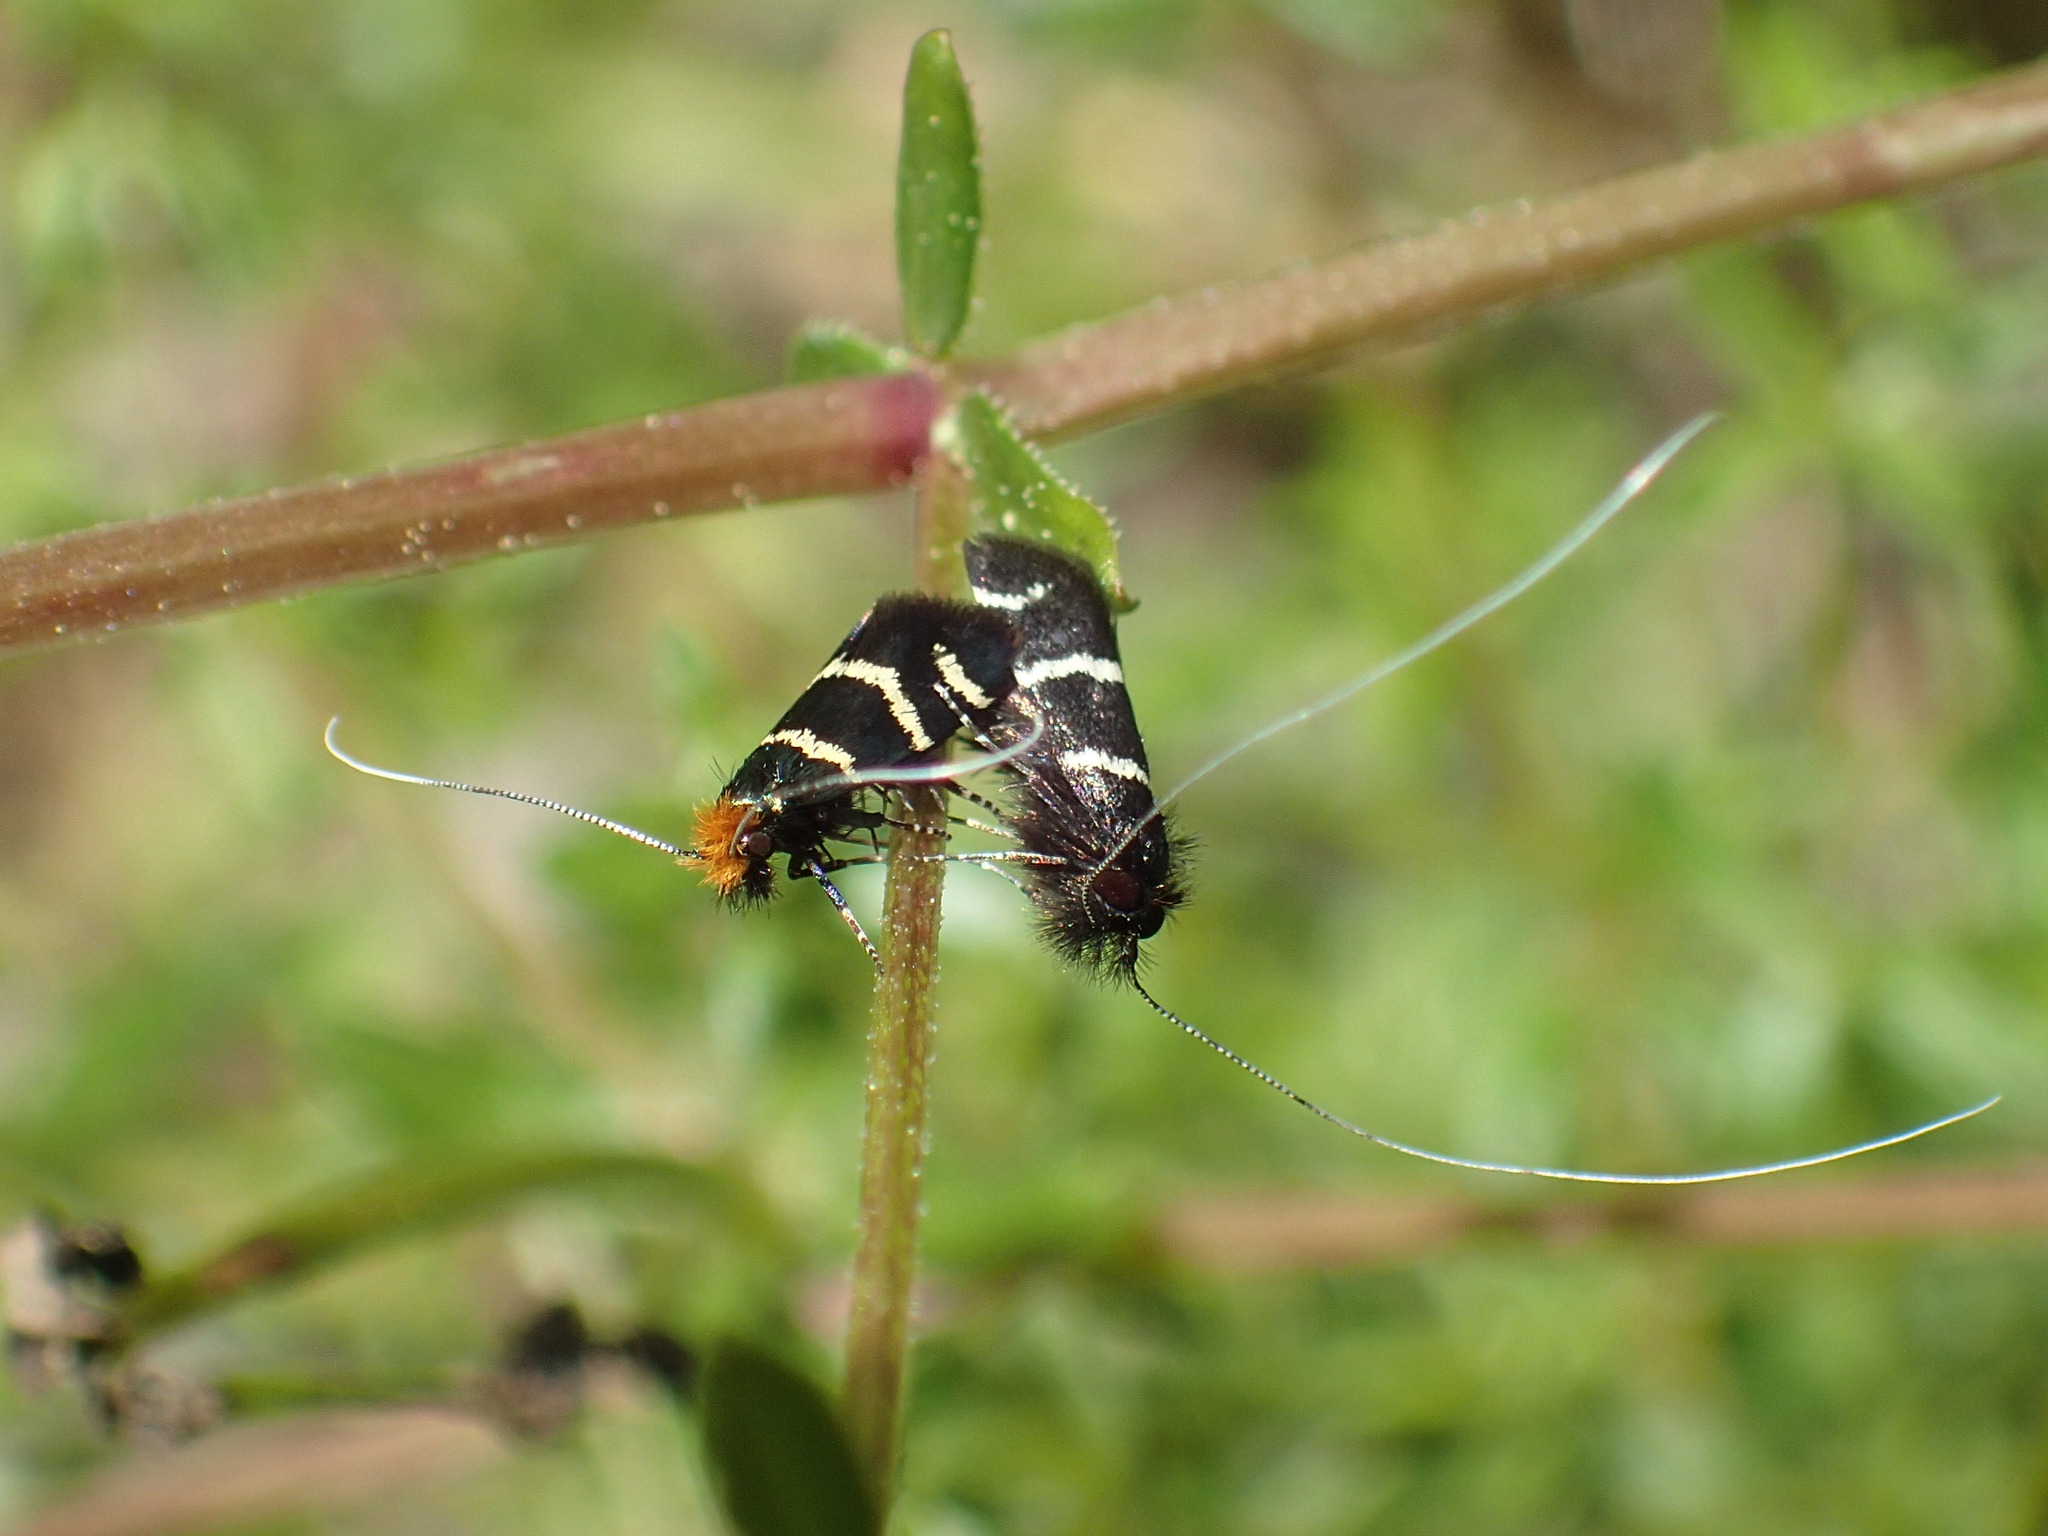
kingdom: Animalia
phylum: Arthropoda
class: Insecta
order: Lepidoptera
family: Adelidae
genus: Adela
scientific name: Adela trigrapha
